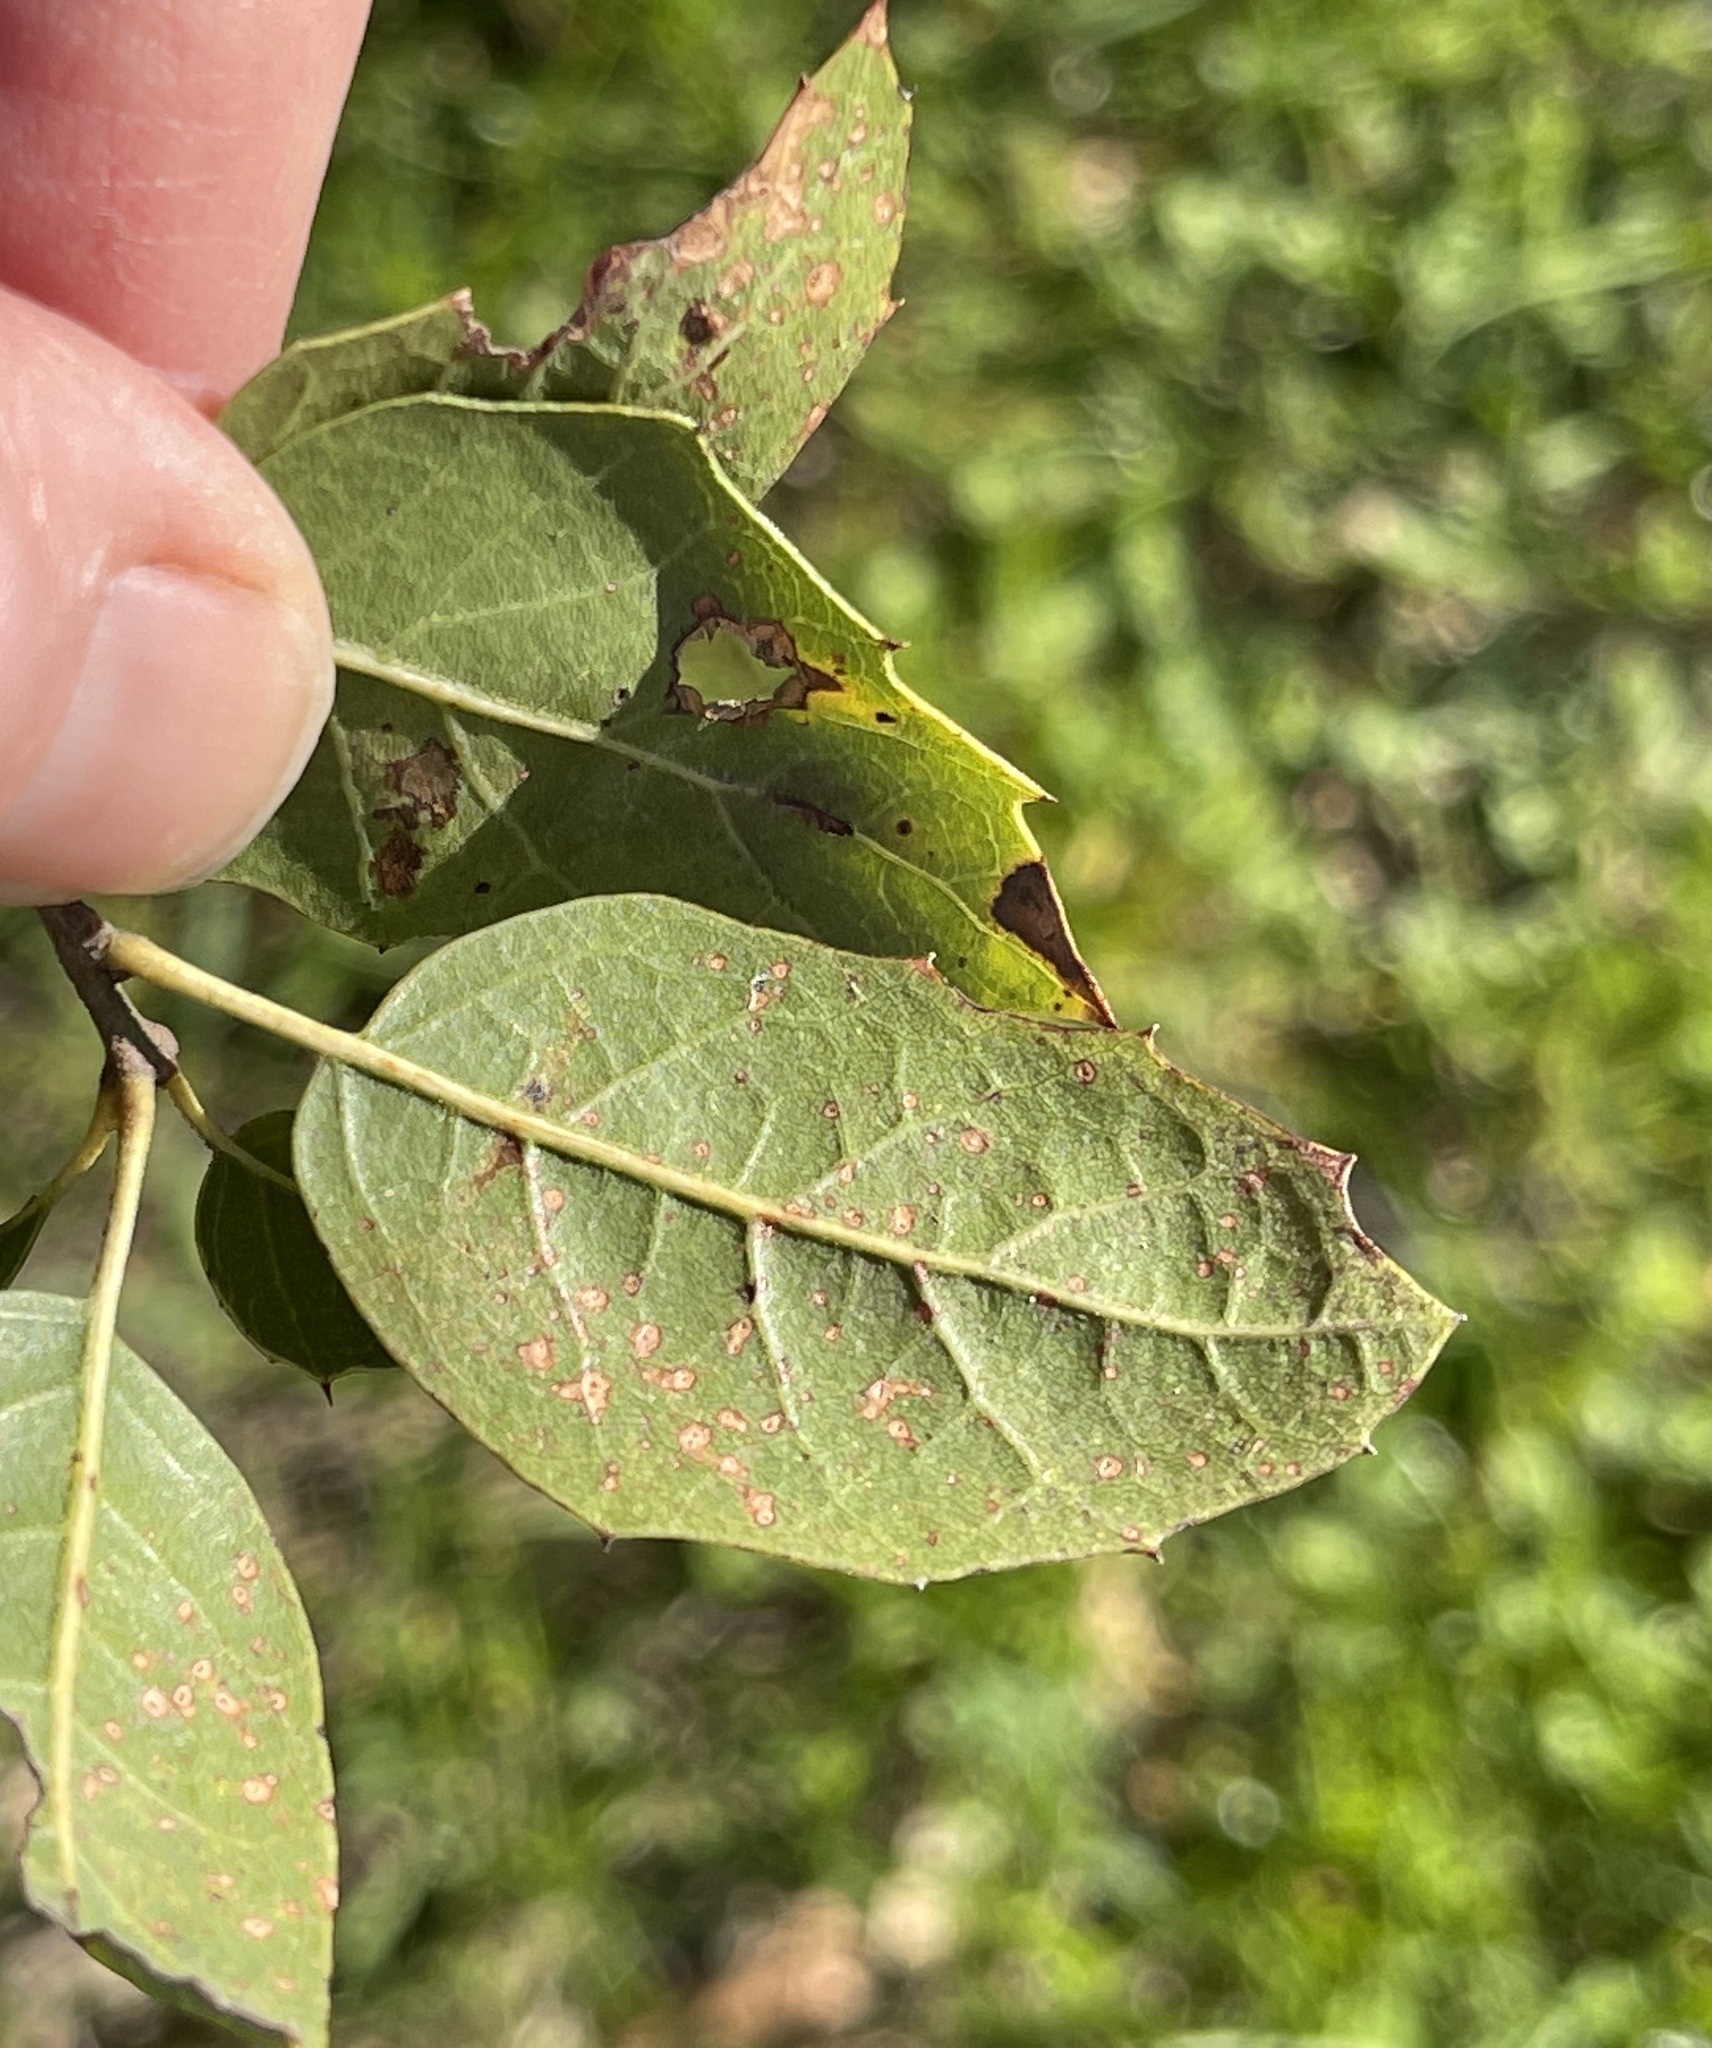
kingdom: Plantae
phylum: Tracheophyta
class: Magnoliopsida
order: Fagales
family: Fagaceae
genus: Quercus
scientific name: Quercus wislizeni
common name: Interior live oak
